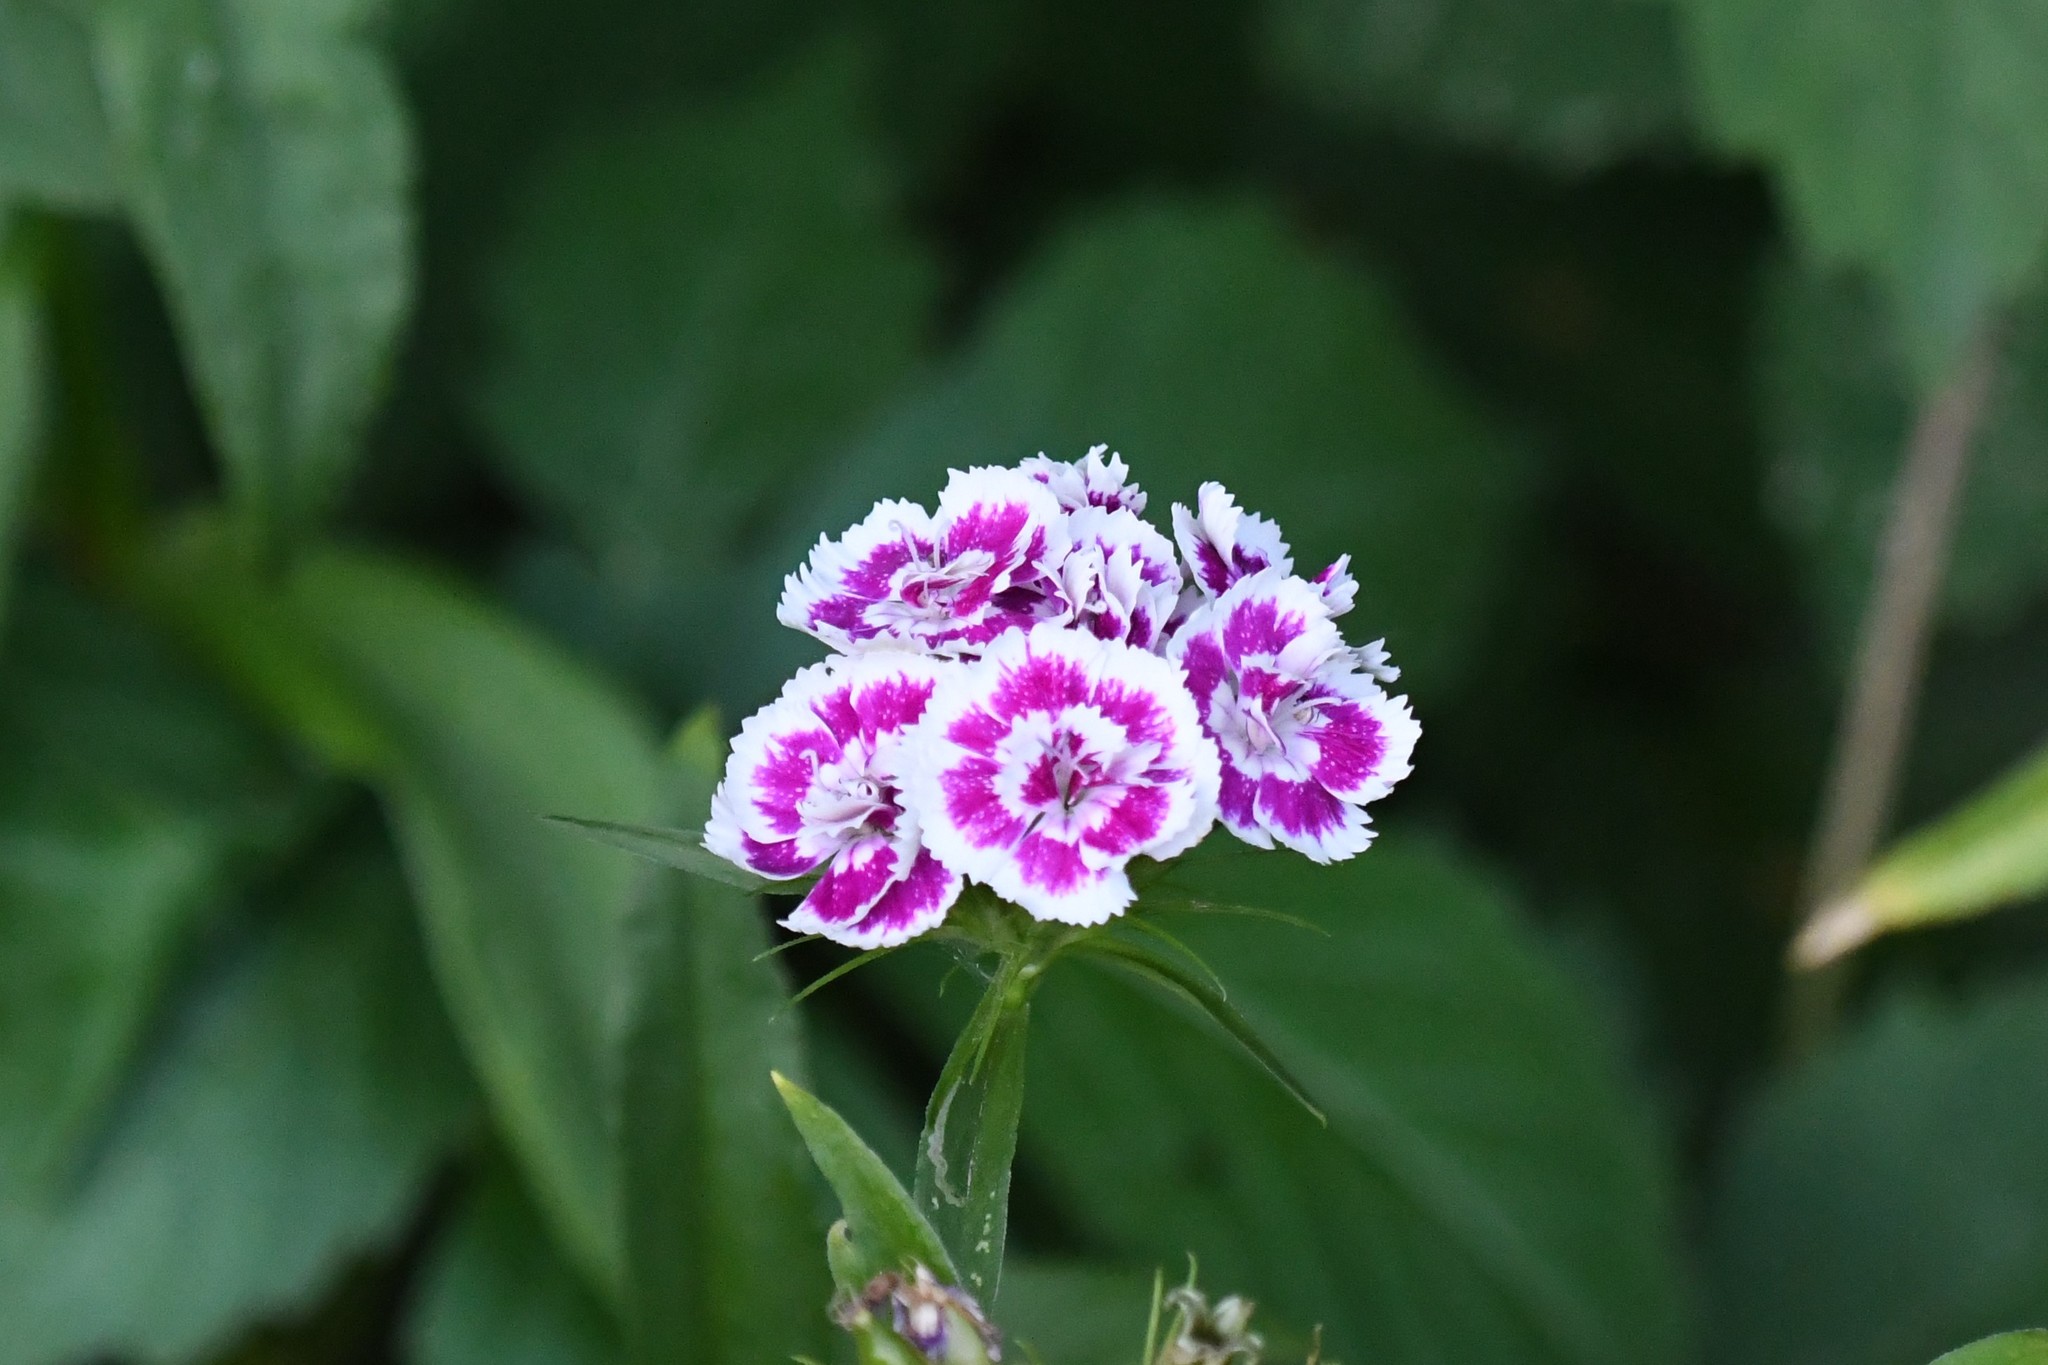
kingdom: Plantae
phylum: Tracheophyta
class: Magnoliopsida
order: Caryophyllales
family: Caryophyllaceae
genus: Dianthus
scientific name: Dianthus barbatus
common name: Sweet-william
